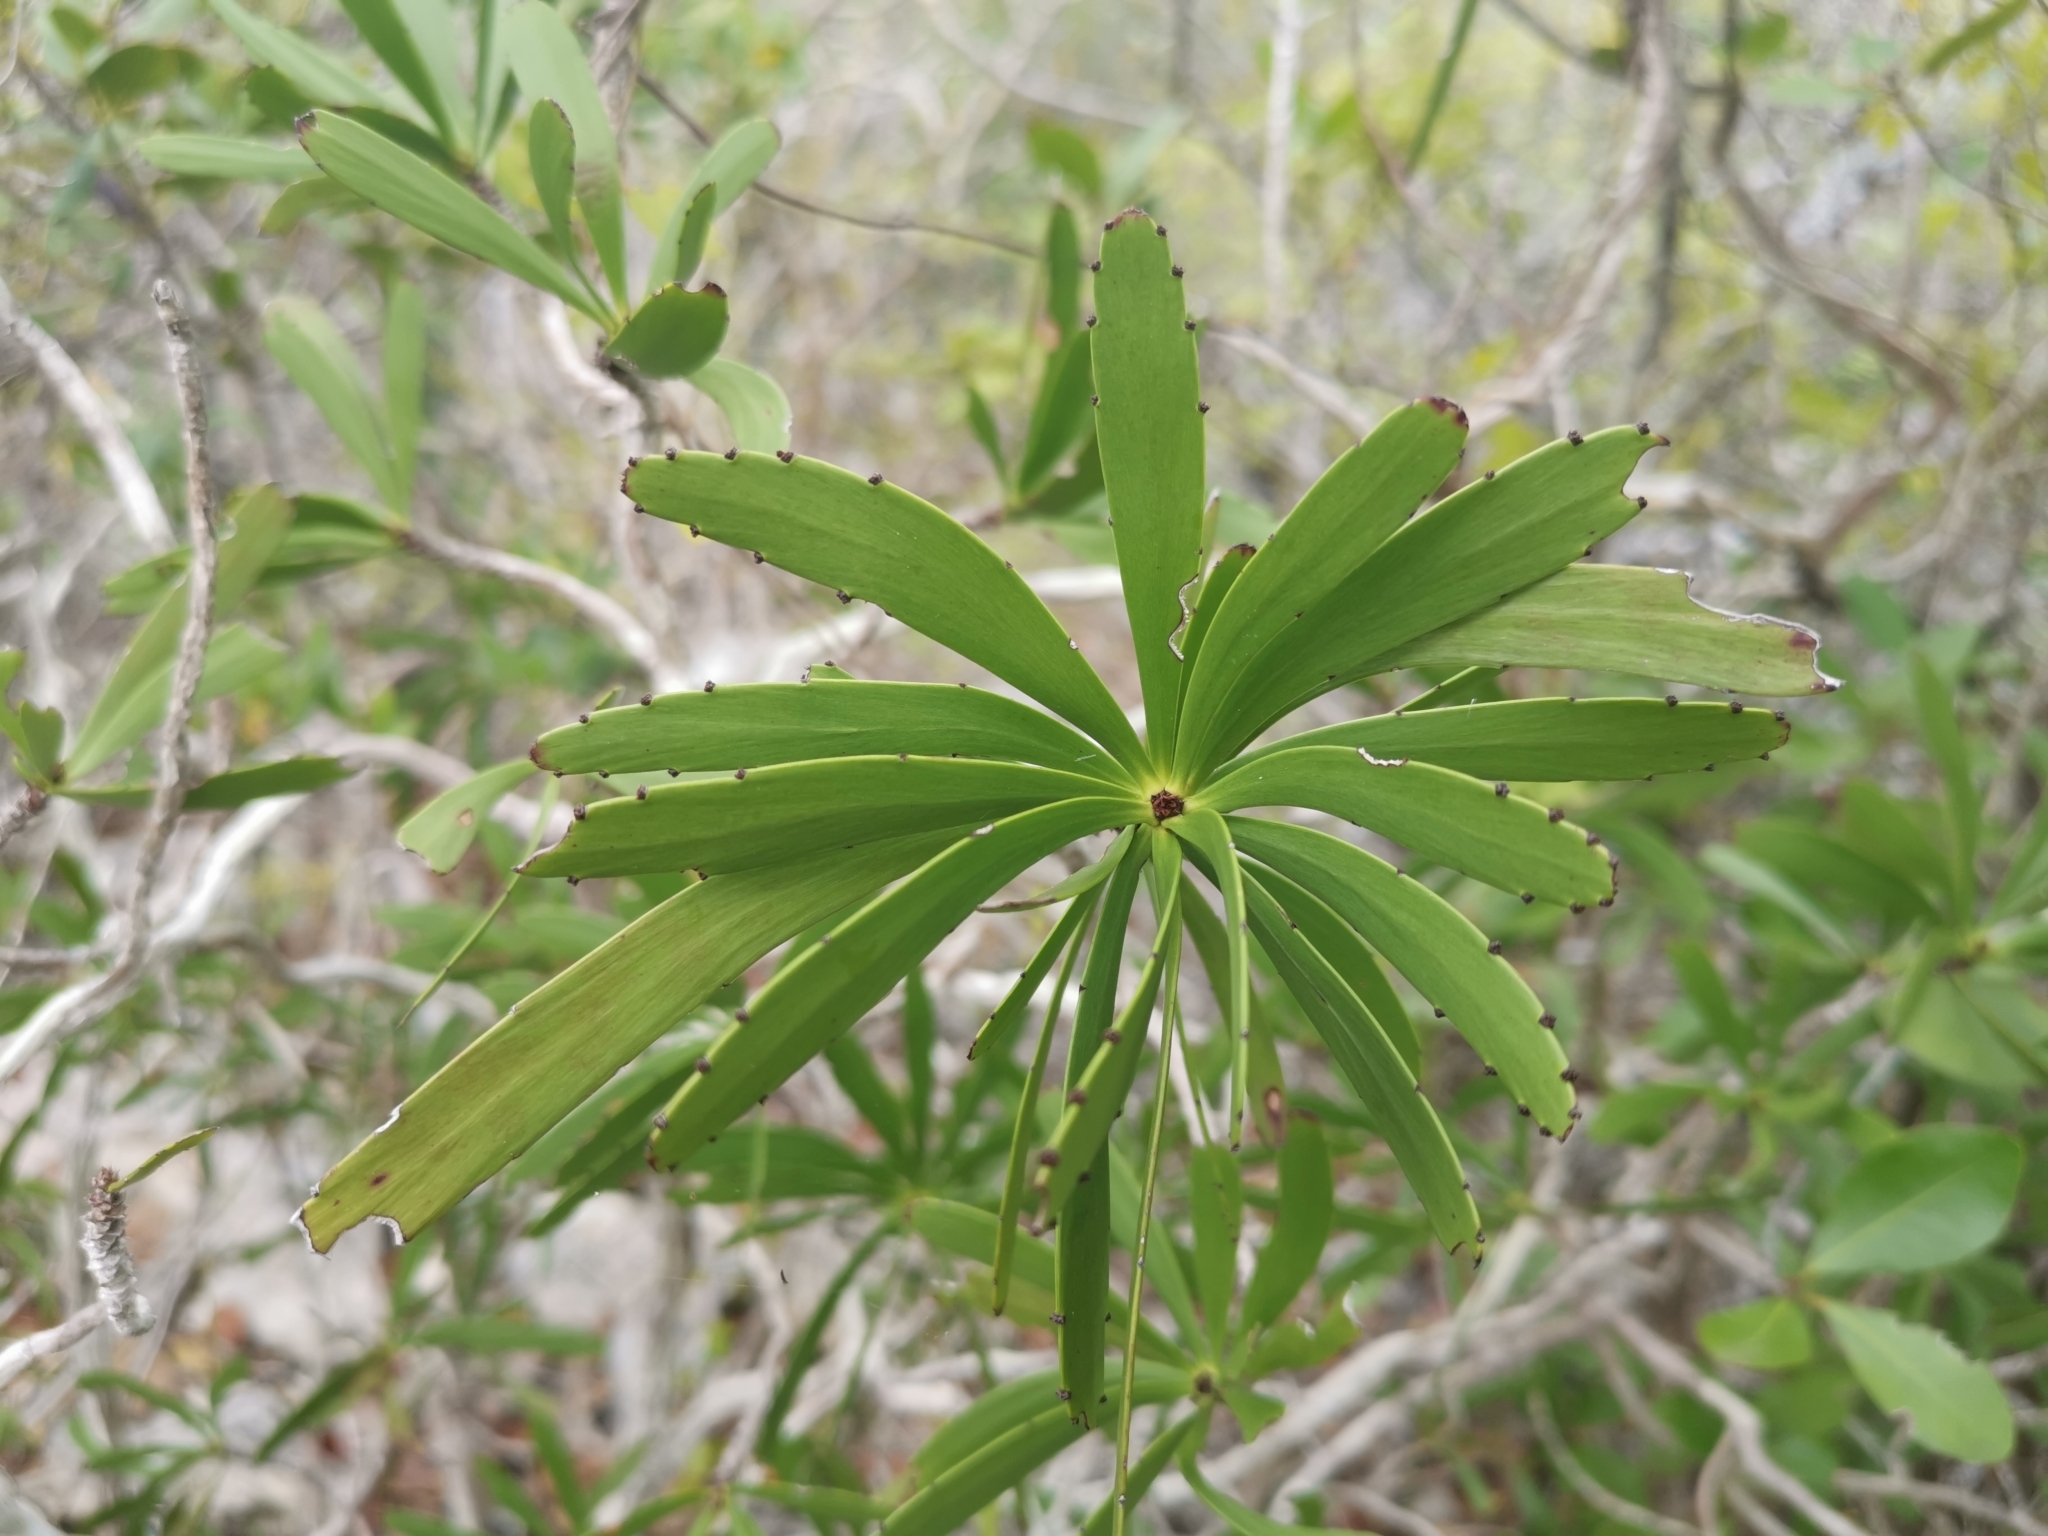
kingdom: Plantae
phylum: Tracheophyta
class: Magnoliopsida
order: Malpighiales
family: Phyllanthaceae
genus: Phyllanthus
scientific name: Phyllanthus epiphyllanthus
